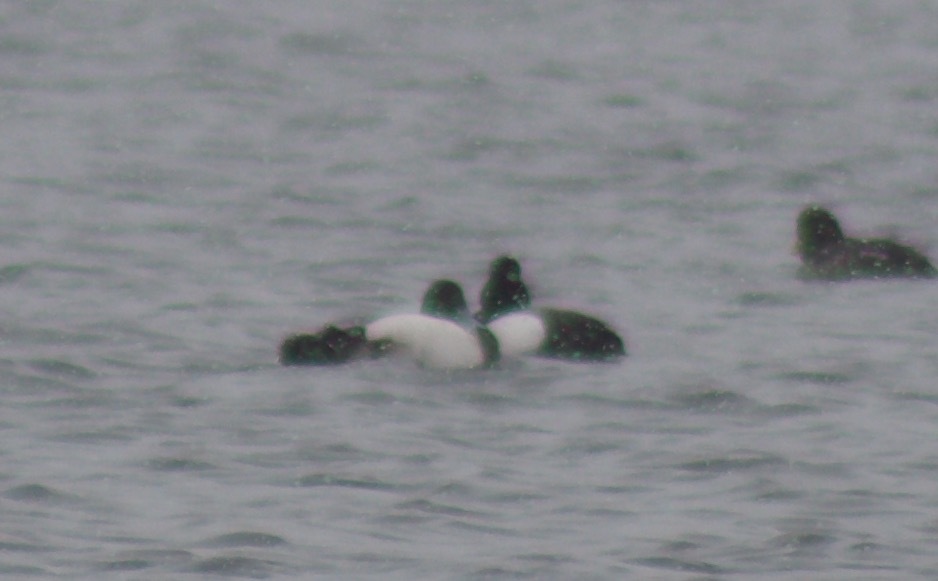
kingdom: Animalia
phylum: Chordata
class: Aves
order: Anseriformes
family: Anatidae
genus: Bucephala
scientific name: Bucephala clangula
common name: Common goldeneye
